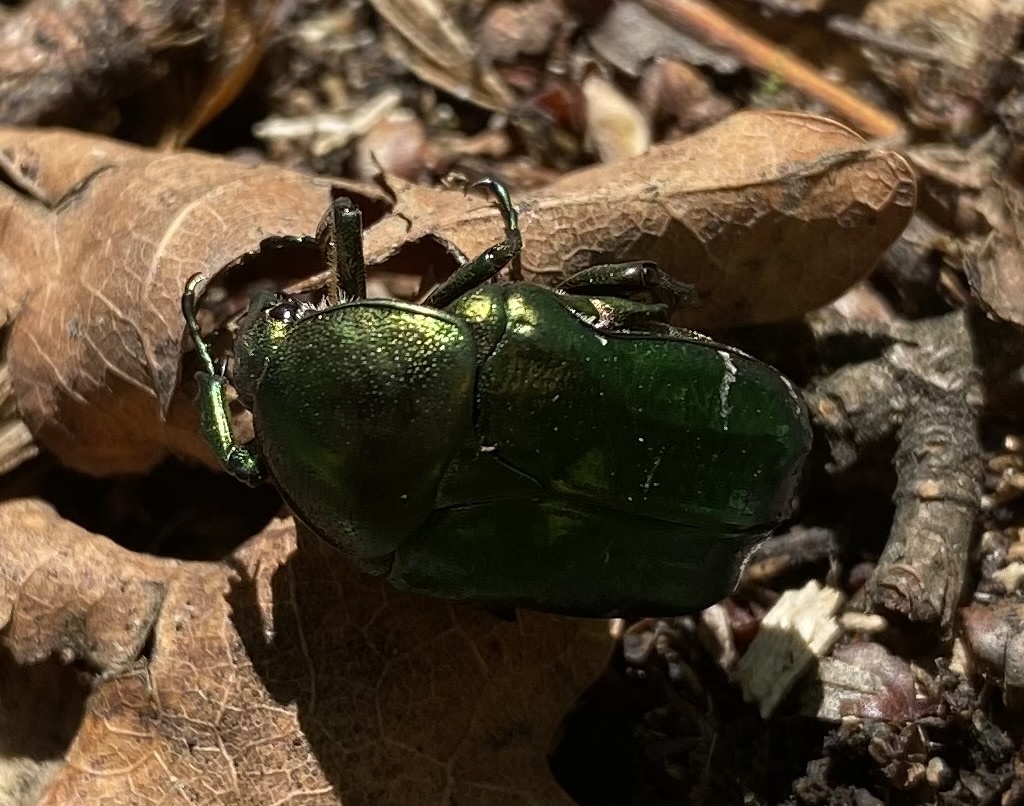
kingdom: Animalia
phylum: Arthropoda
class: Insecta
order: Coleoptera
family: Scarabaeidae
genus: Cetonia
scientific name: Cetonia aurata
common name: Rose chafer
